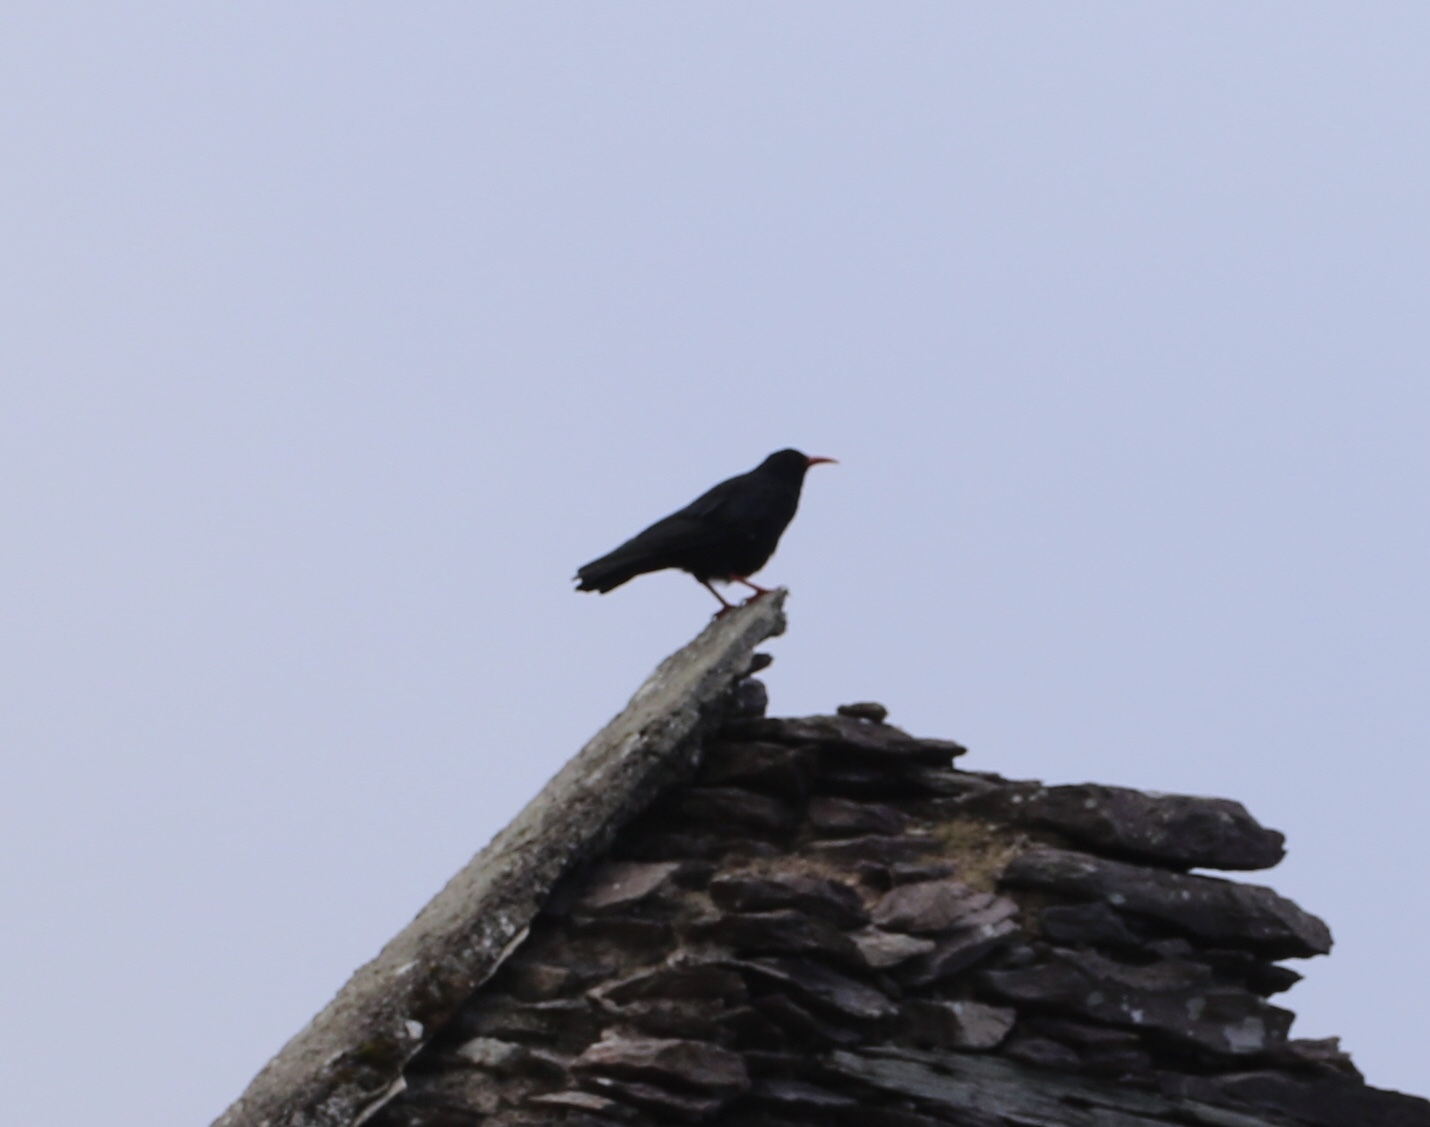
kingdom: Animalia
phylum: Chordata
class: Aves
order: Passeriformes
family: Corvidae
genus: Pyrrhocorax
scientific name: Pyrrhocorax pyrrhocorax
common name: Red-billed chough
